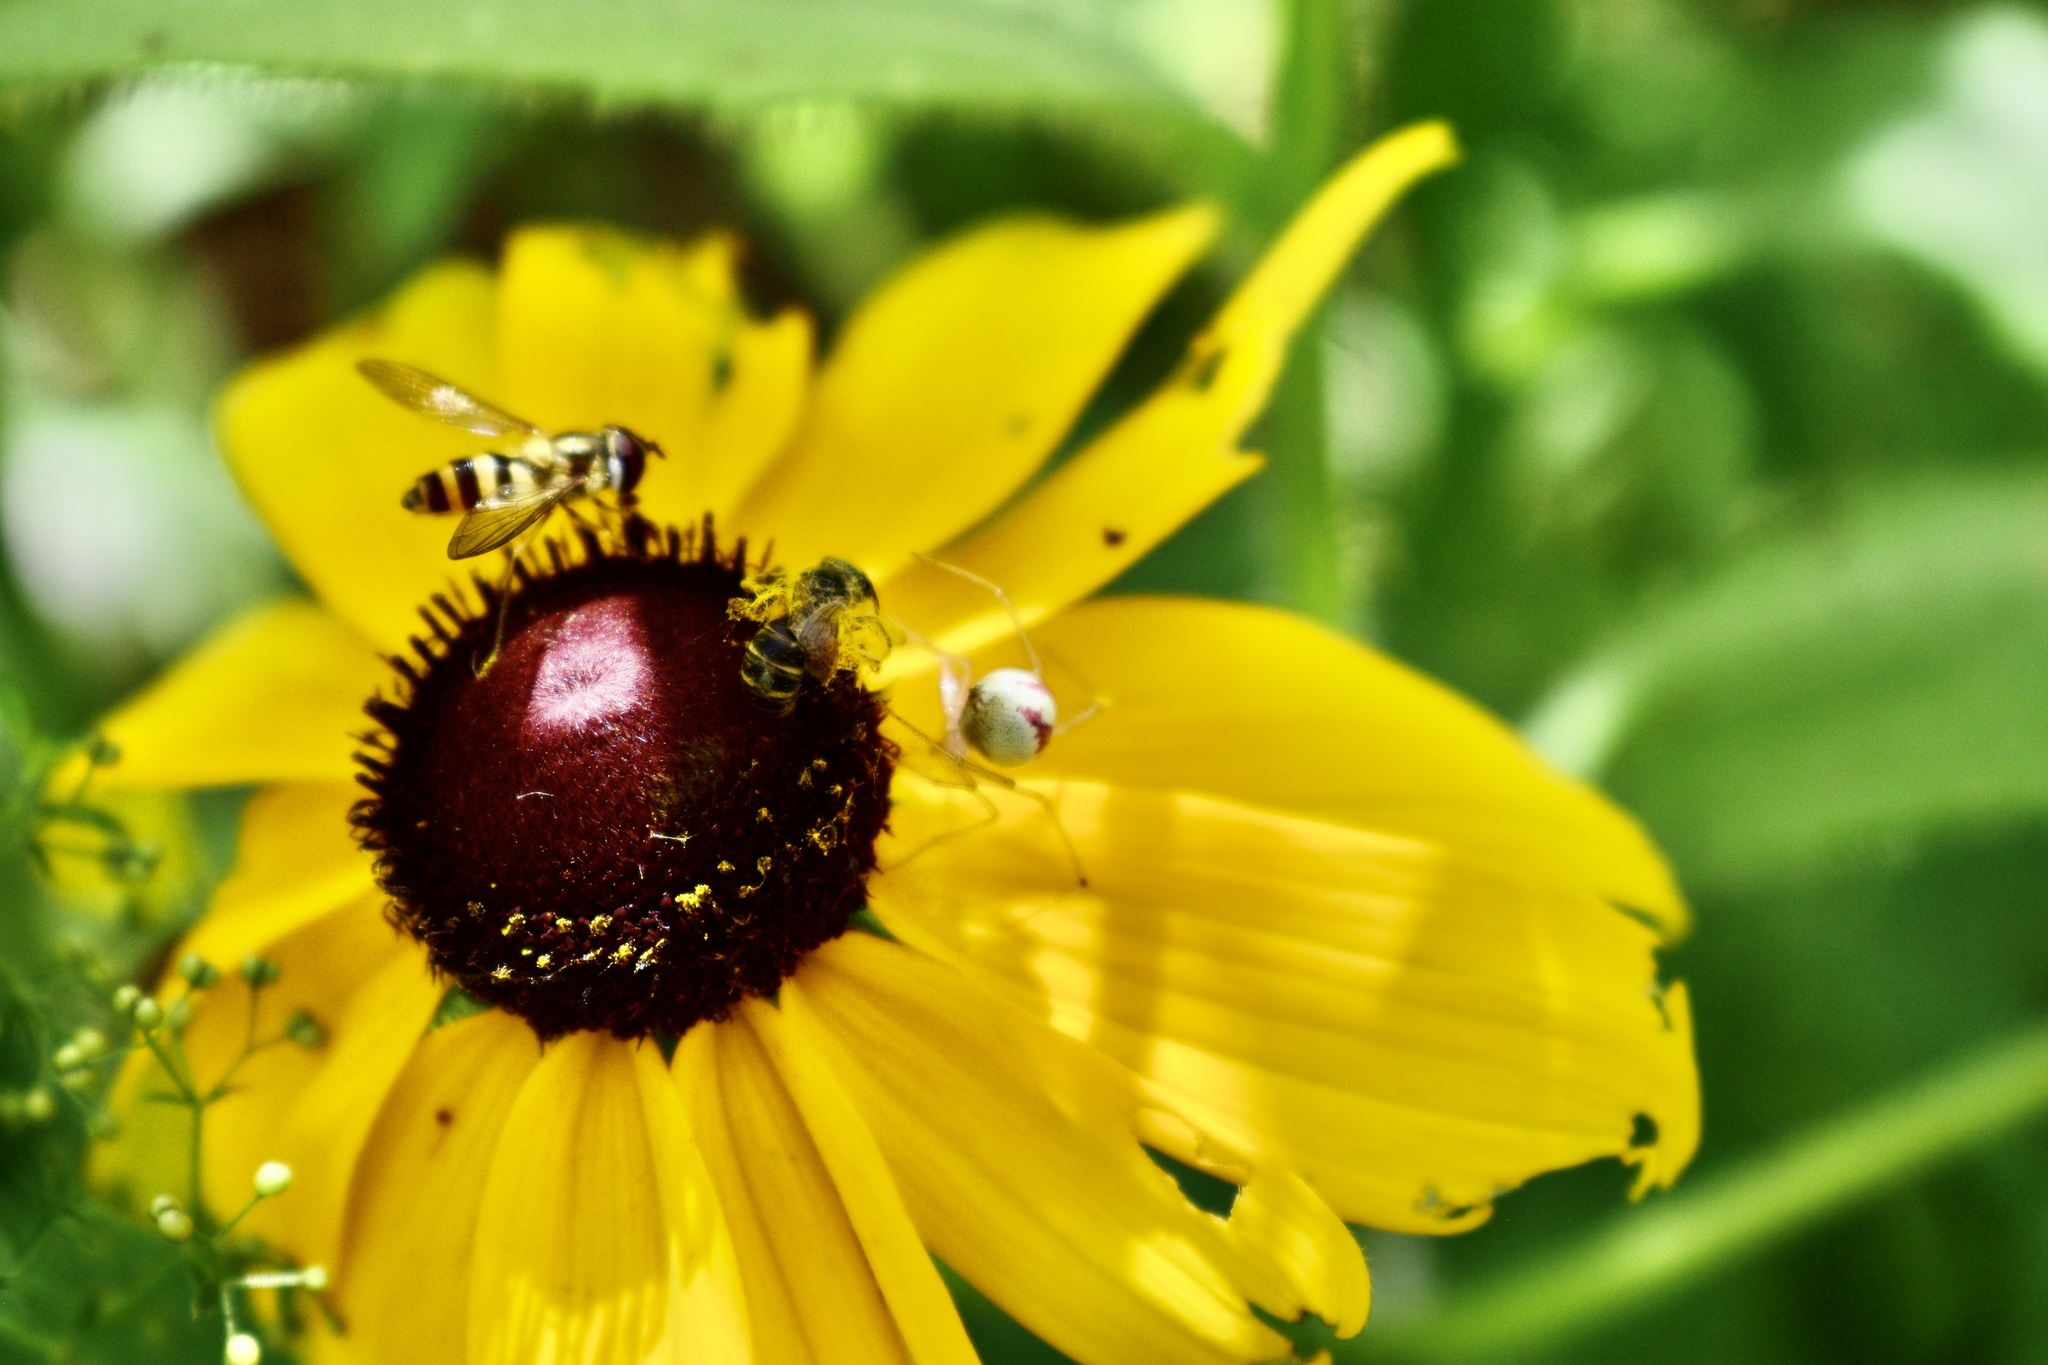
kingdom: Animalia
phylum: Arthropoda
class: Arachnida
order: Araneae
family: Theridiidae
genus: Enoplognatha
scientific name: Enoplognatha ovata
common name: Common candy-striped spider
